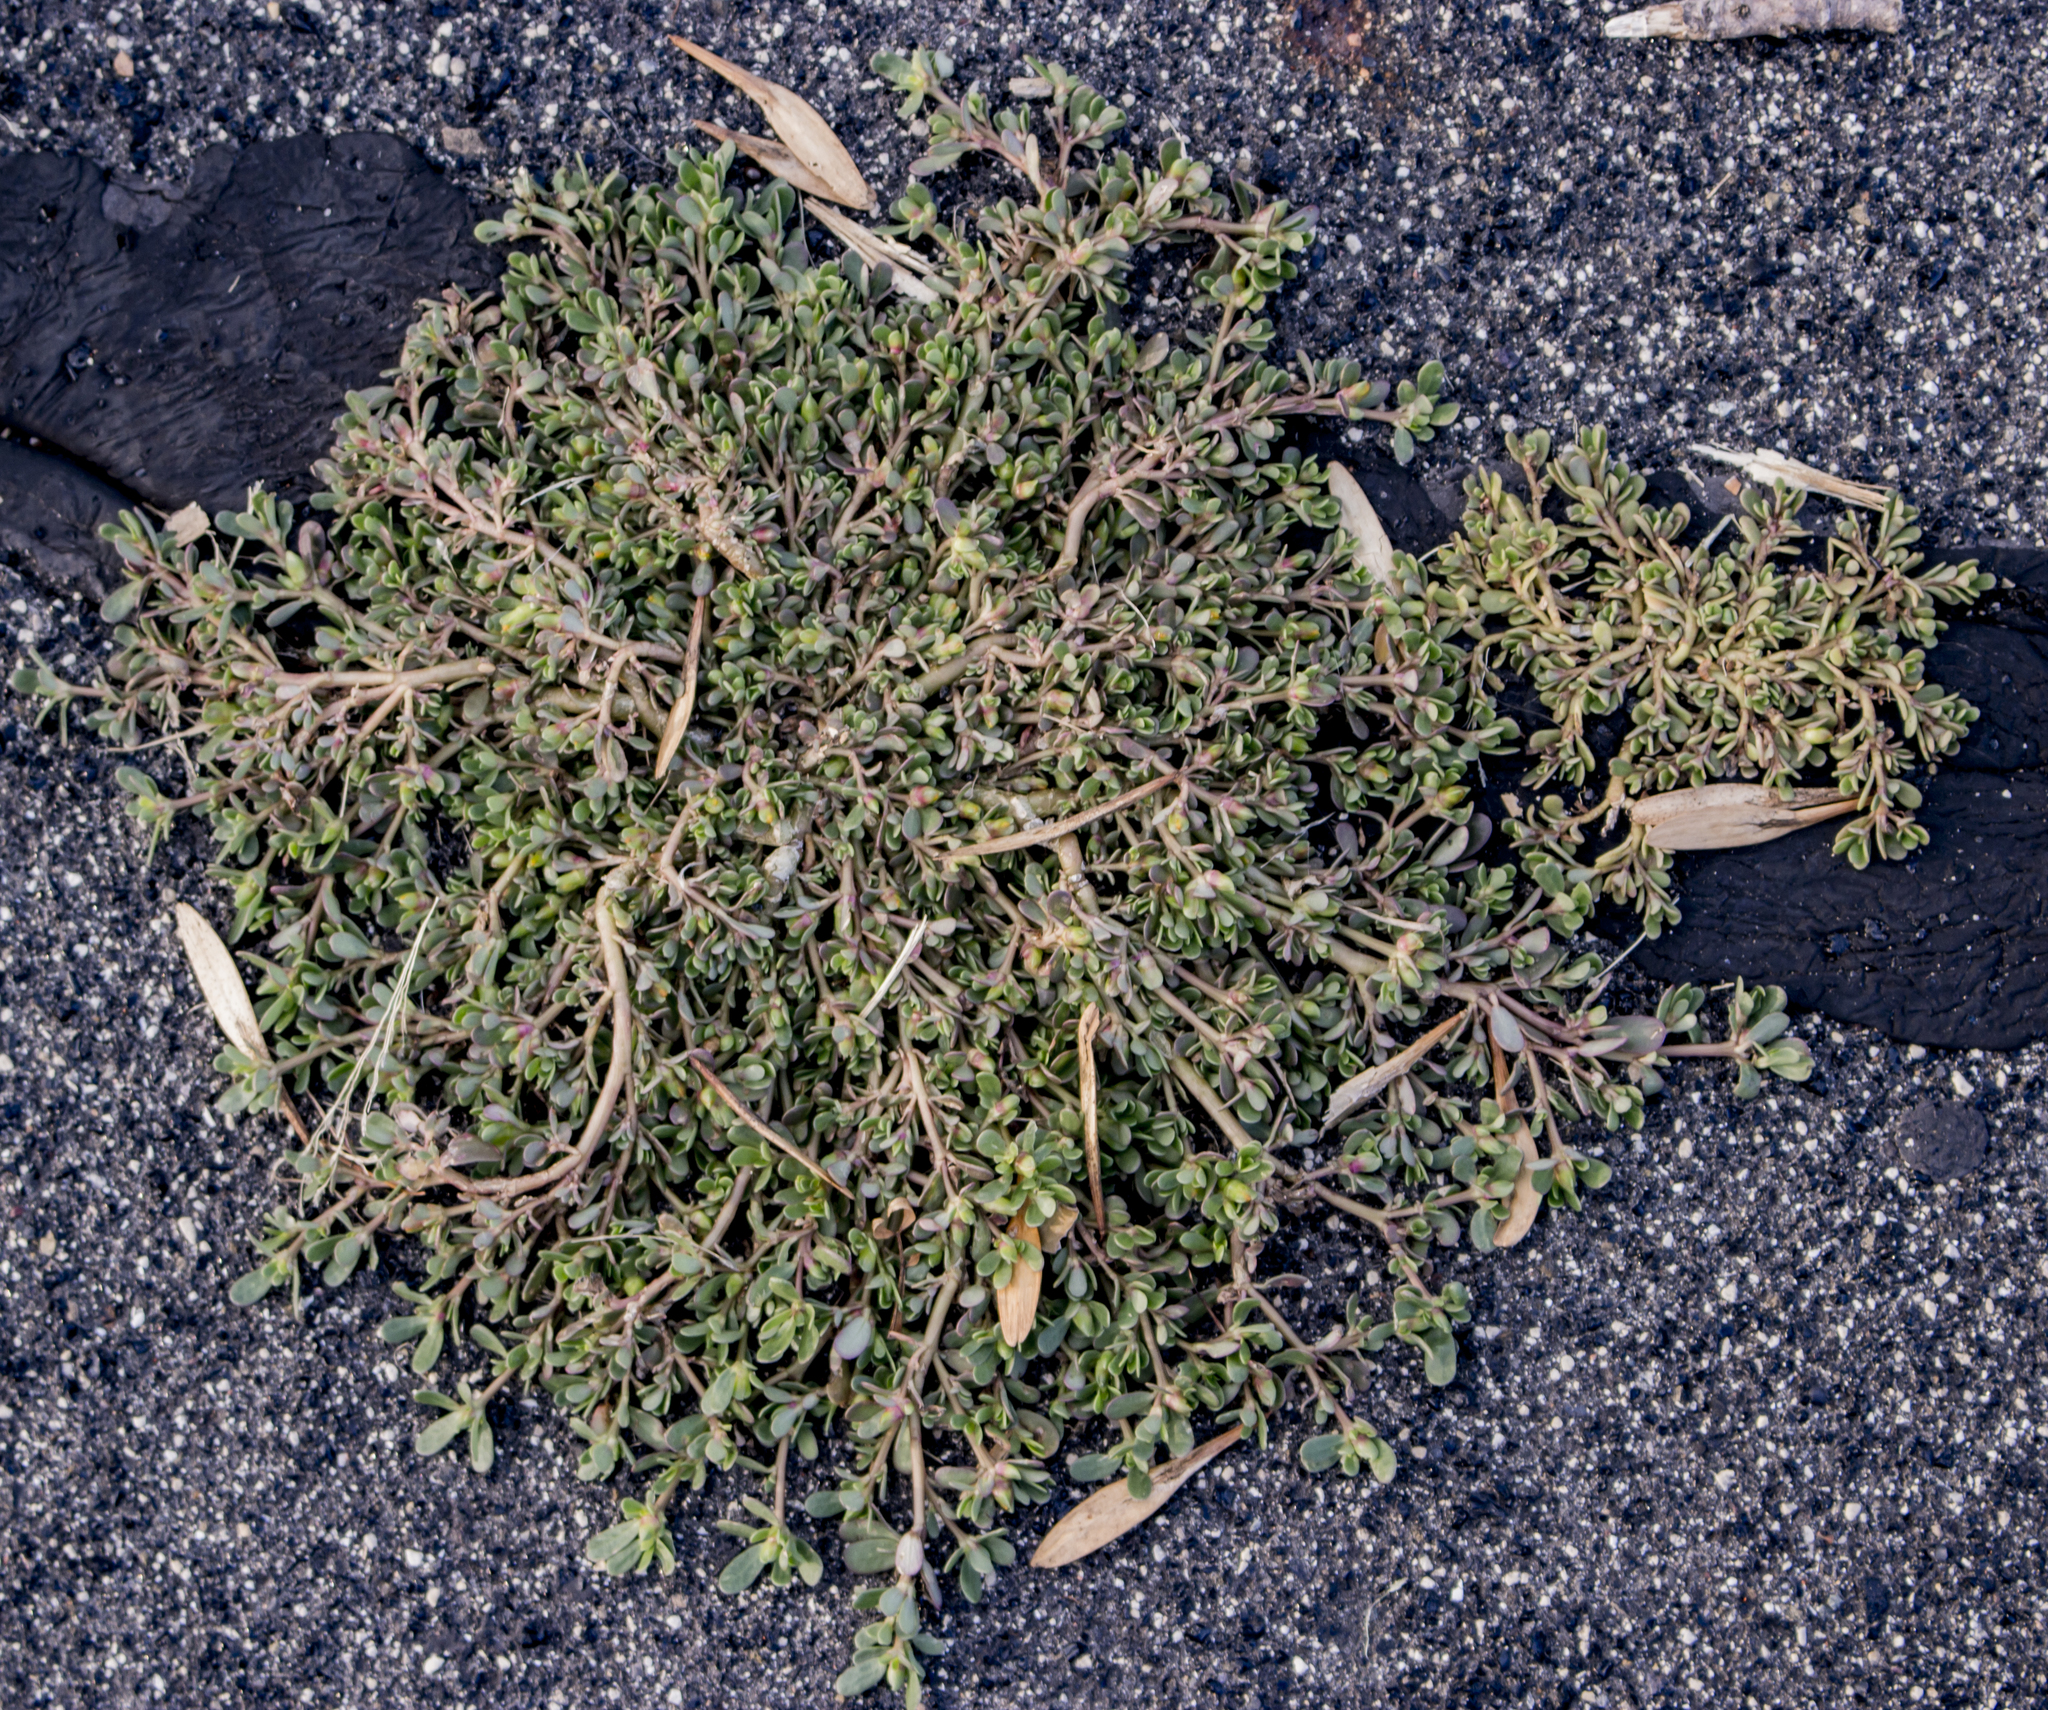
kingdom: Plantae
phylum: Tracheophyta
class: Magnoliopsida
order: Caryophyllales
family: Portulacaceae
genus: Portulaca
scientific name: Portulaca oleracea
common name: Common purslane
